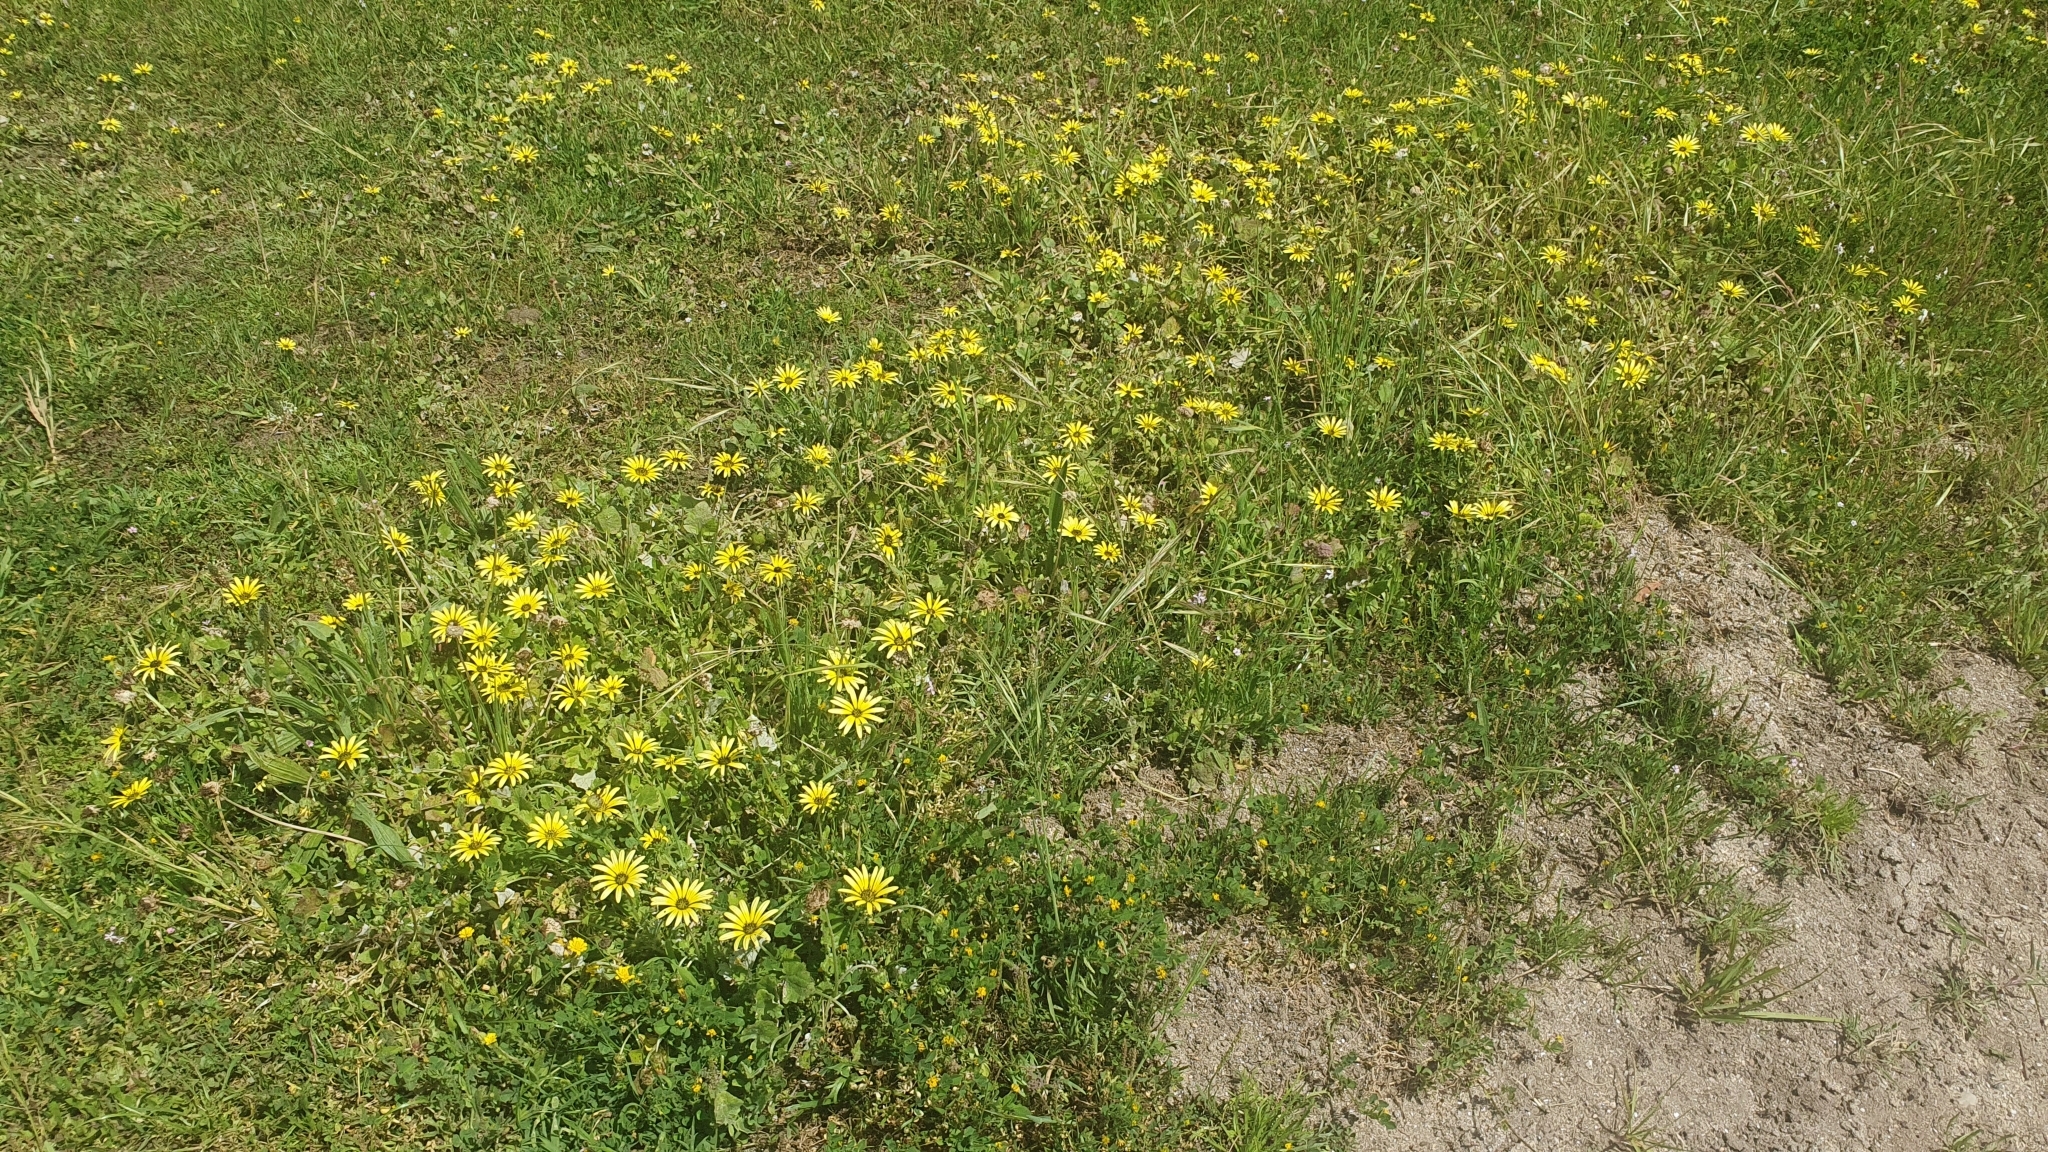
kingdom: Plantae
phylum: Tracheophyta
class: Magnoliopsida
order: Asterales
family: Asteraceae
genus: Arctotheca
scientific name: Arctotheca calendula
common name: Capeweed
